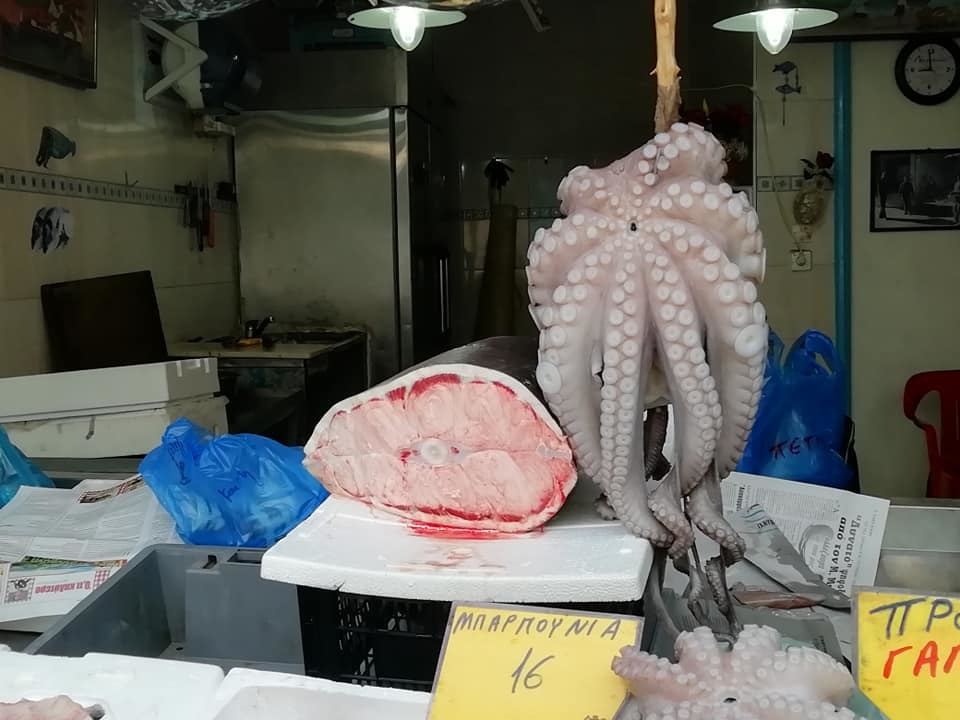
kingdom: Animalia
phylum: Chordata
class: Elasmobranchii
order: Hexanchiformes
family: Hexanchidae
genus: Hexanchus
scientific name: Hexanchus griseus
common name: Bluntnose sixgill shark
